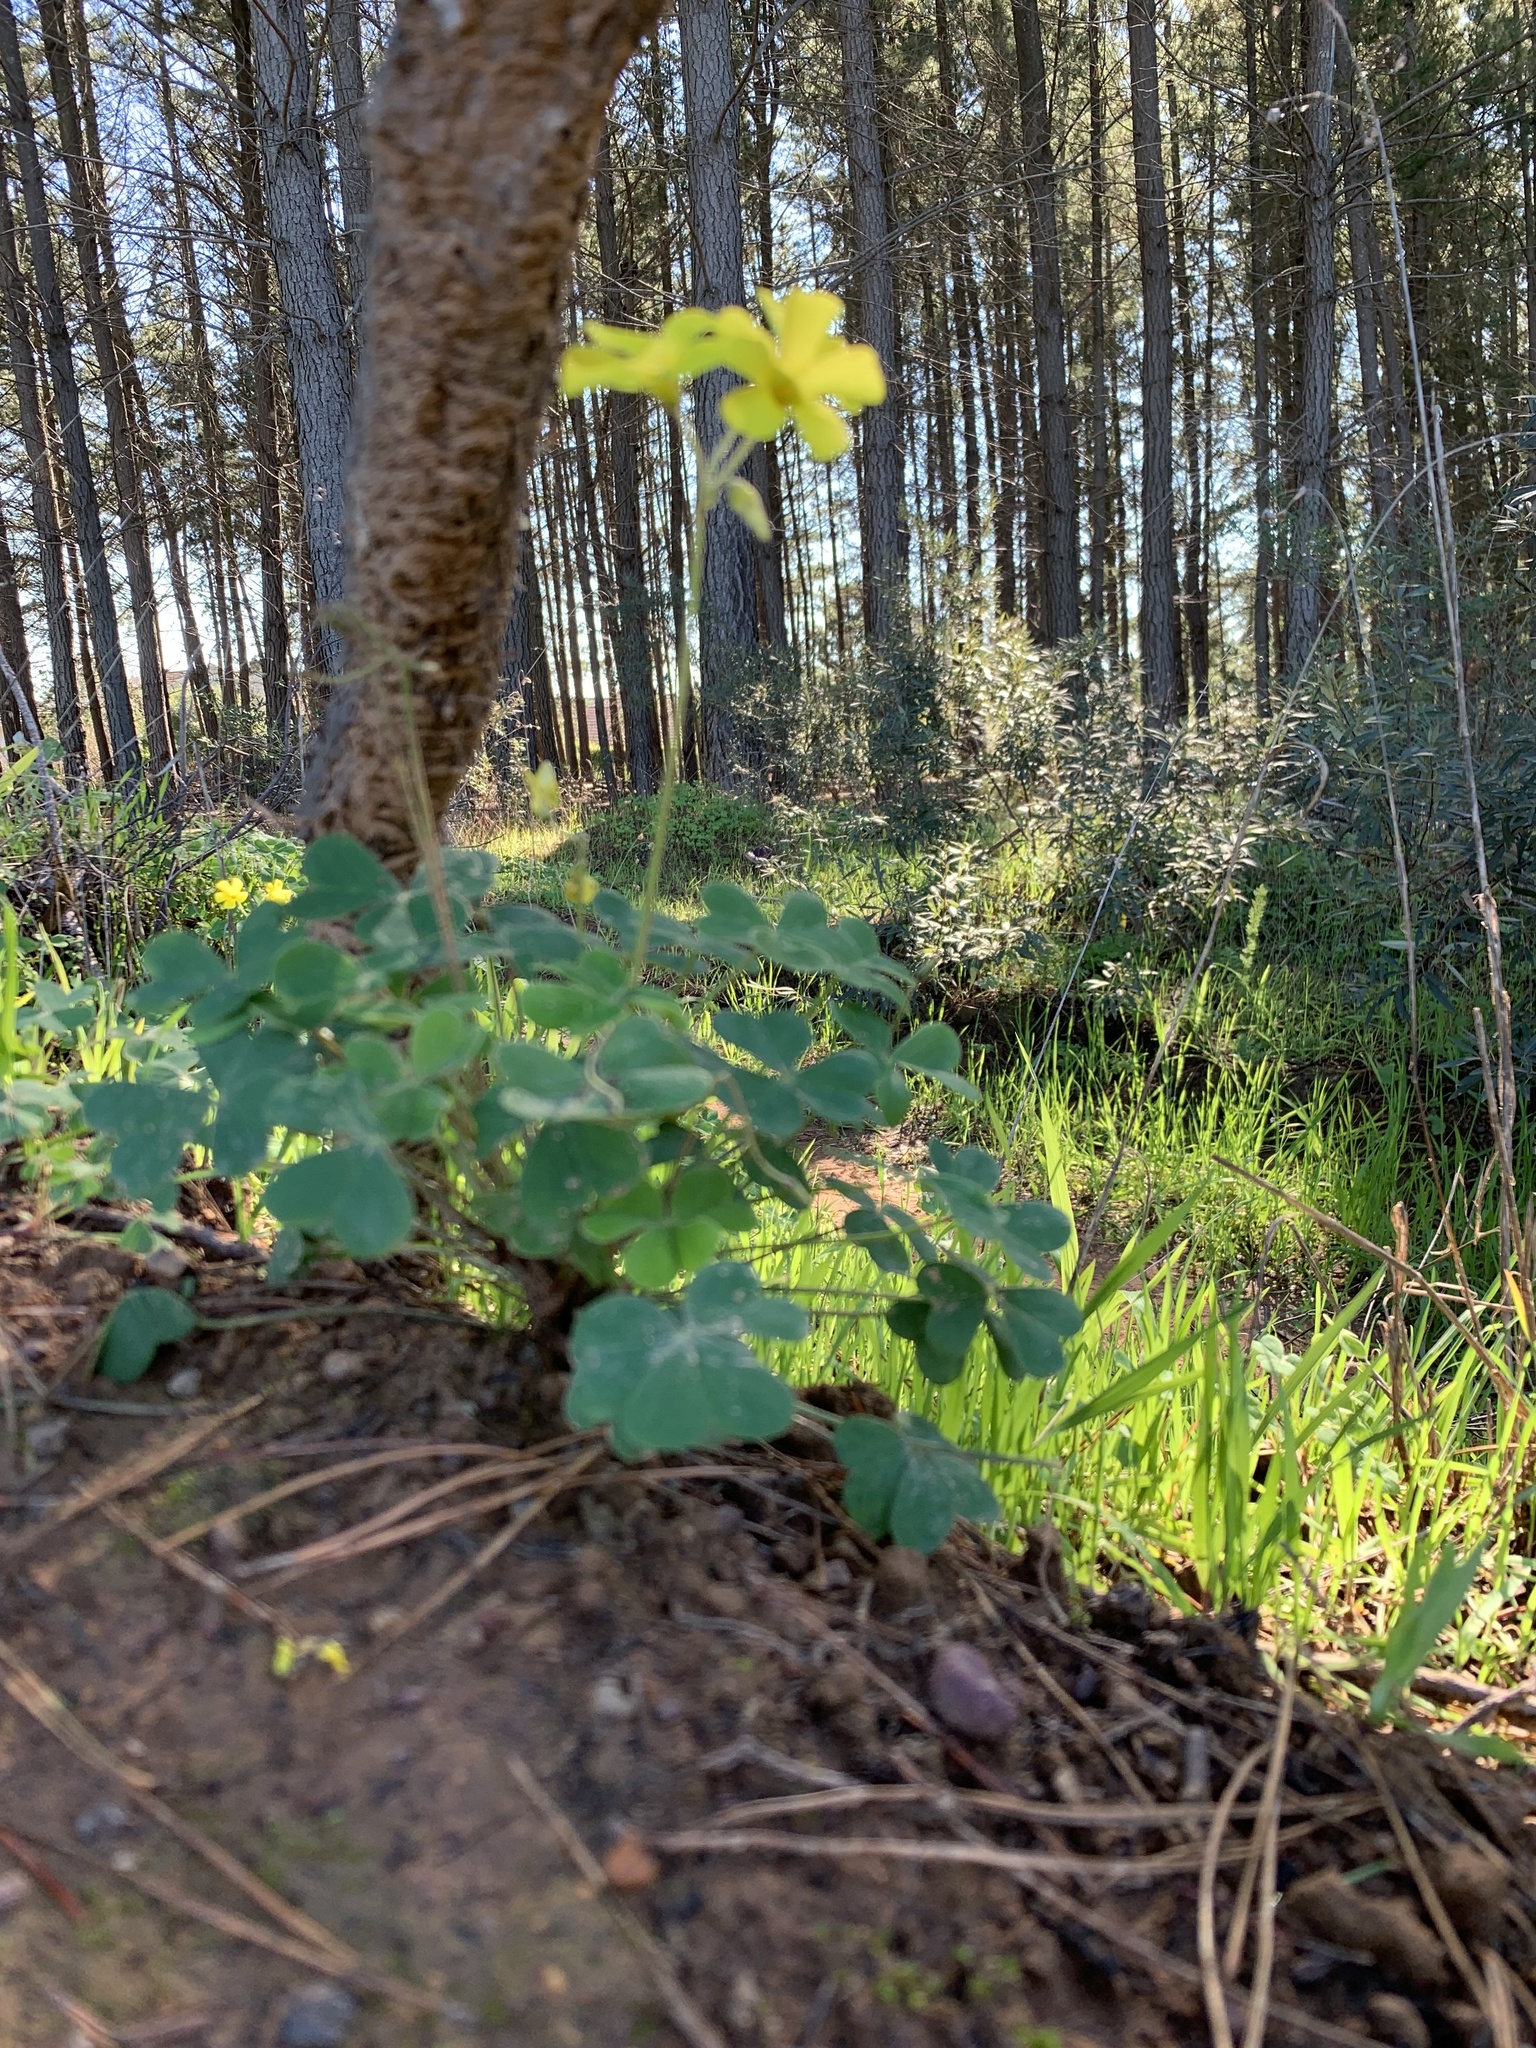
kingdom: Plantae
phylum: Tracheophyta
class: Magnoliopsida
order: Oxalidales
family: Oxalidaceae
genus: Oxalis
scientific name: Oxalis pes-caprae
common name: Bermuda-buttercup
